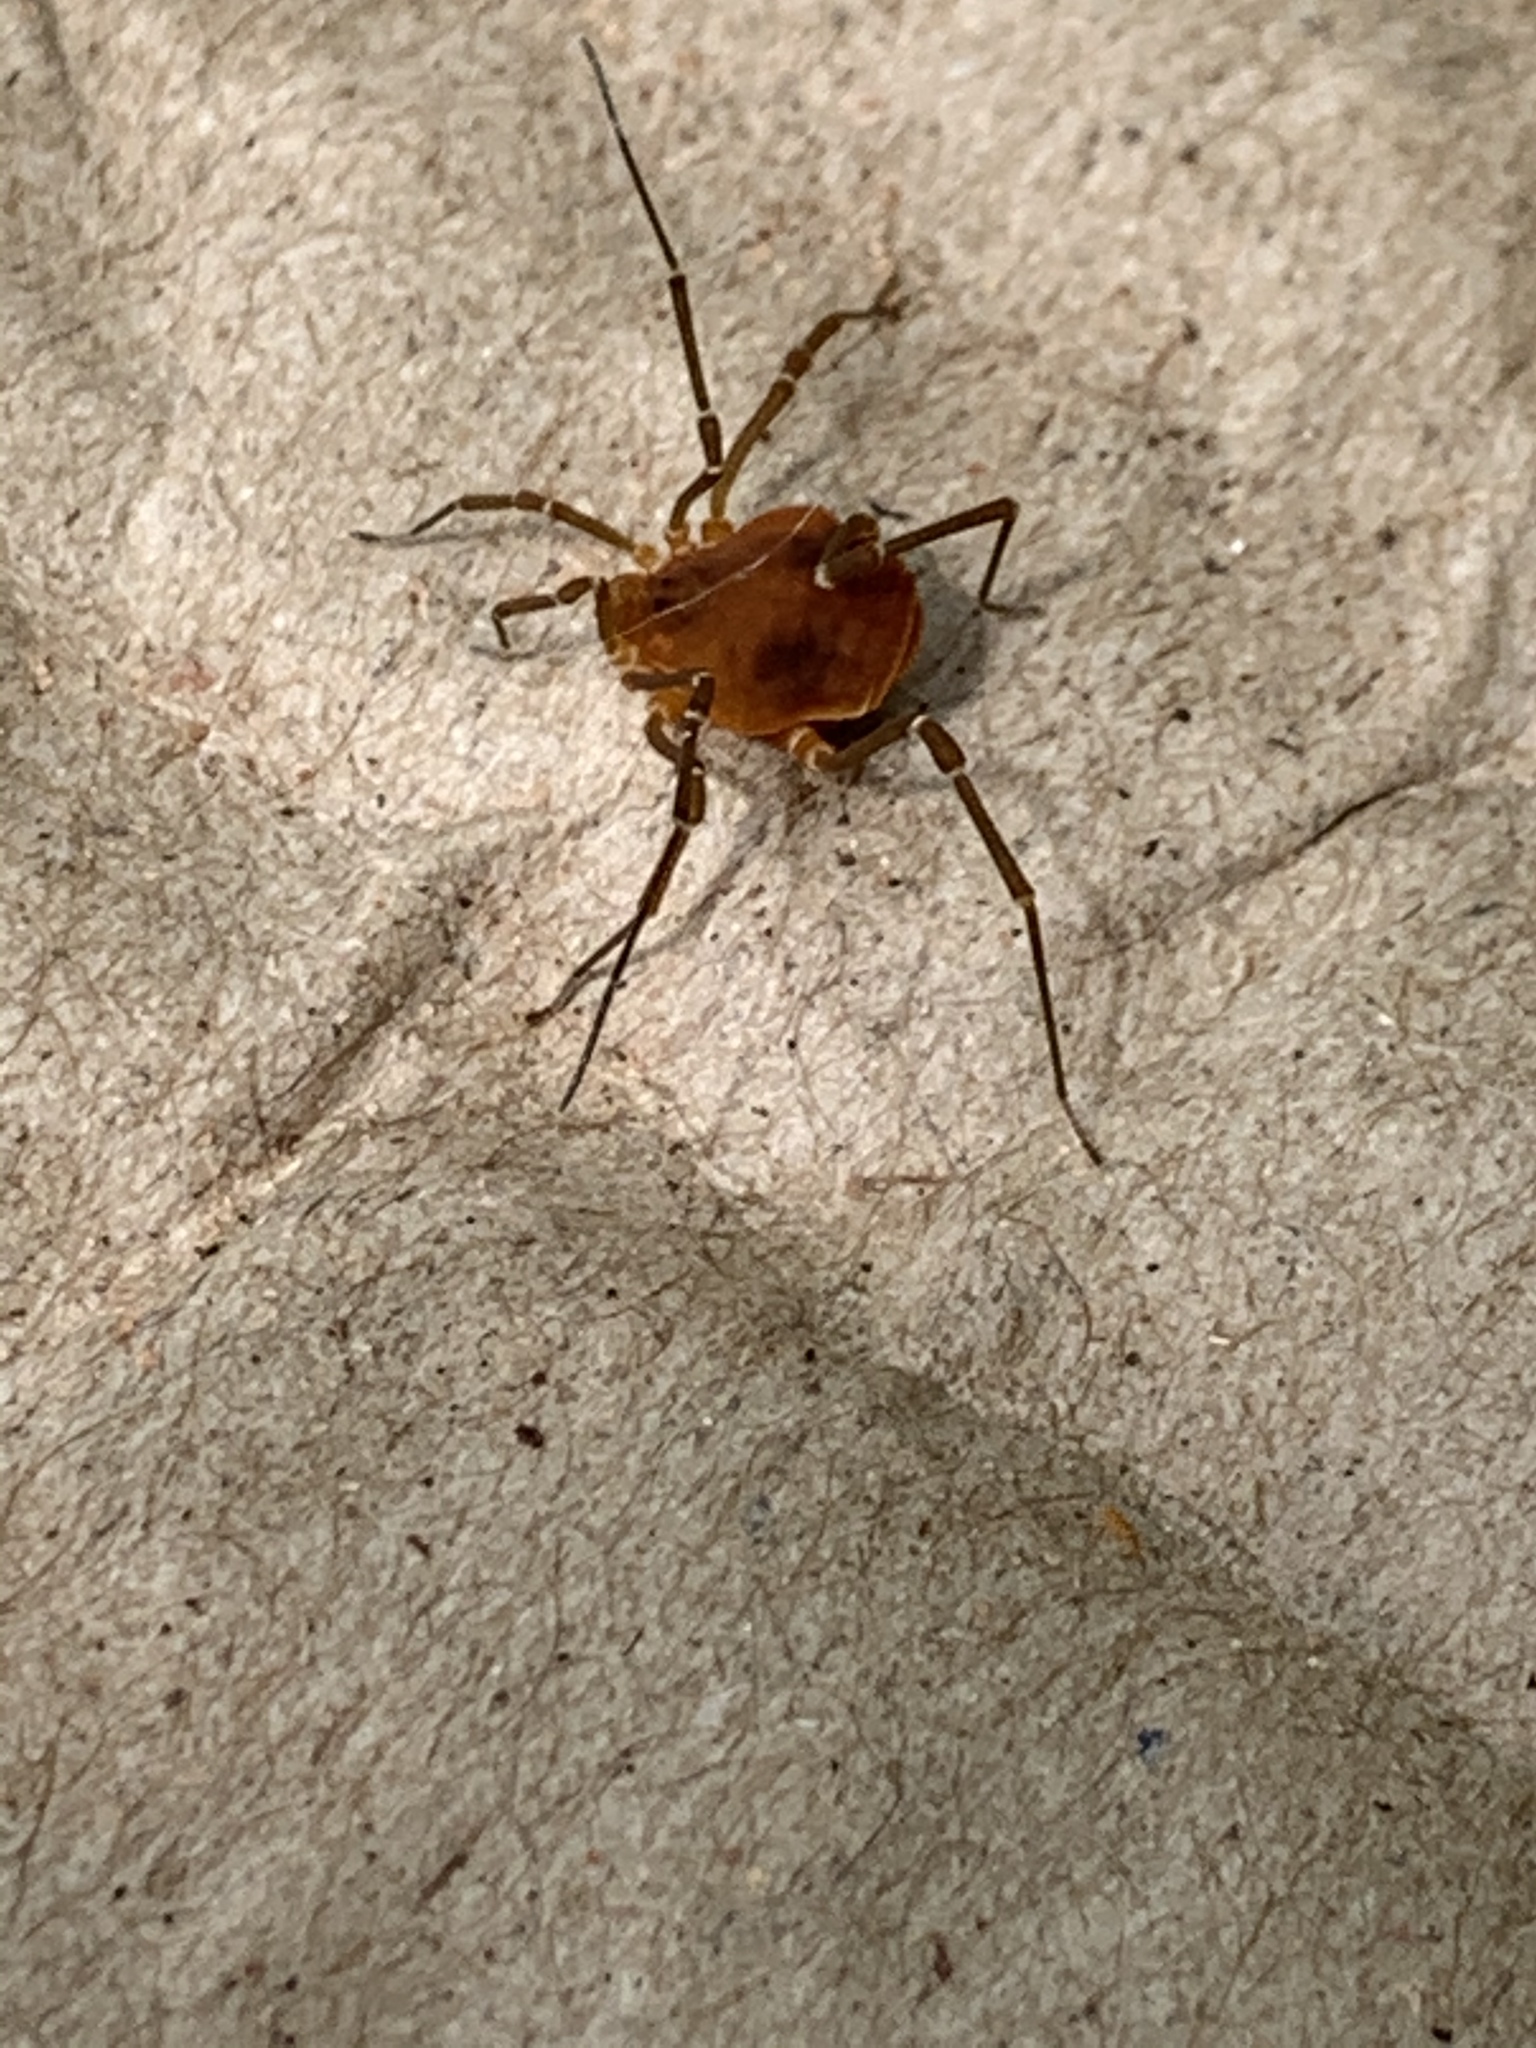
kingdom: Animalia
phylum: Arthropoda
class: Arachnida
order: Opiliones
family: Cosmetidae
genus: Libitioides
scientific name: Libitioides sayi
